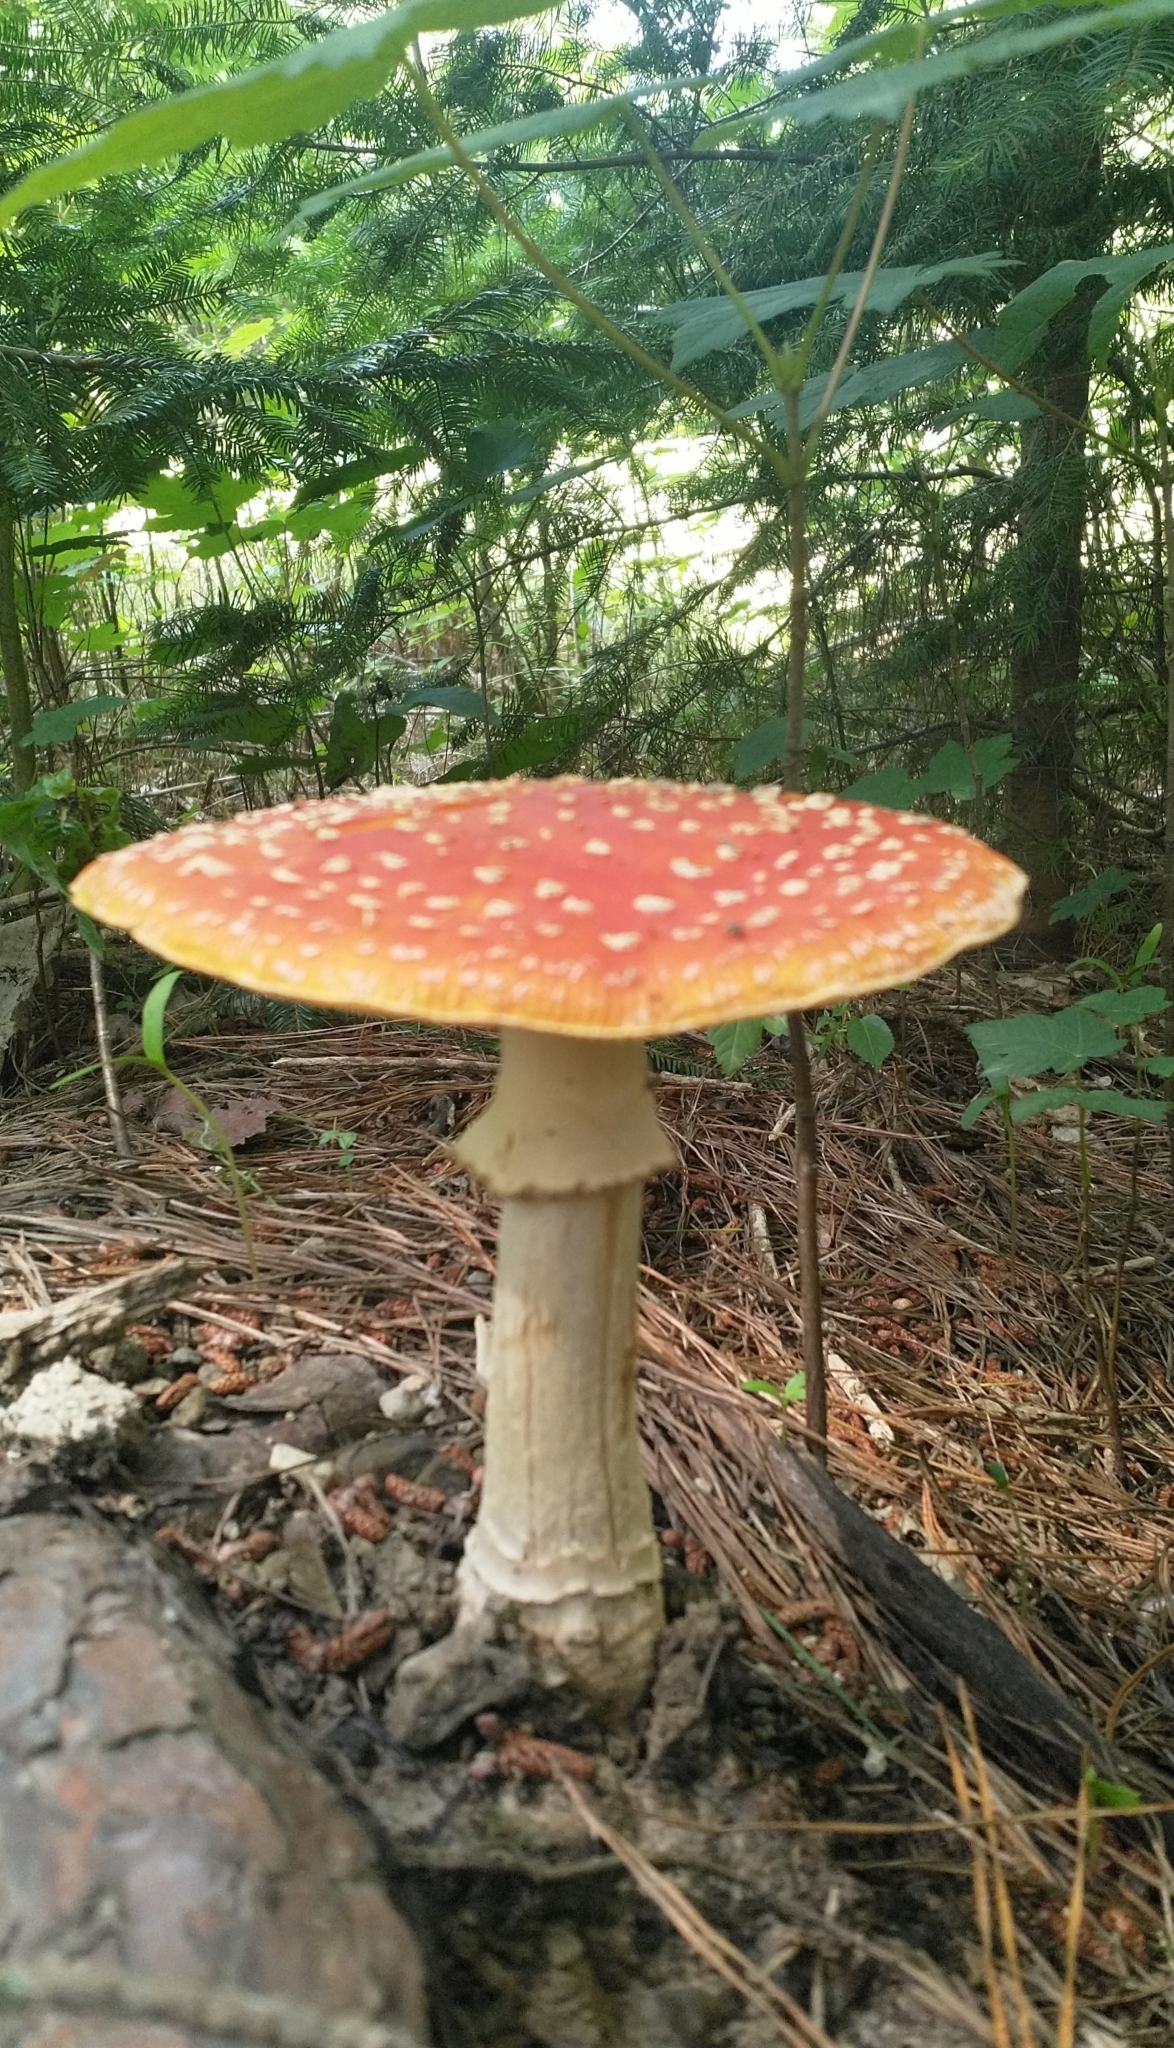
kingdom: Fungi
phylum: Basidiomycota
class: Agaricomycetes
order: Agaricales
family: Amanitaceae
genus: Amanita
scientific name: Amanita muscaria
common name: Fly agaric
